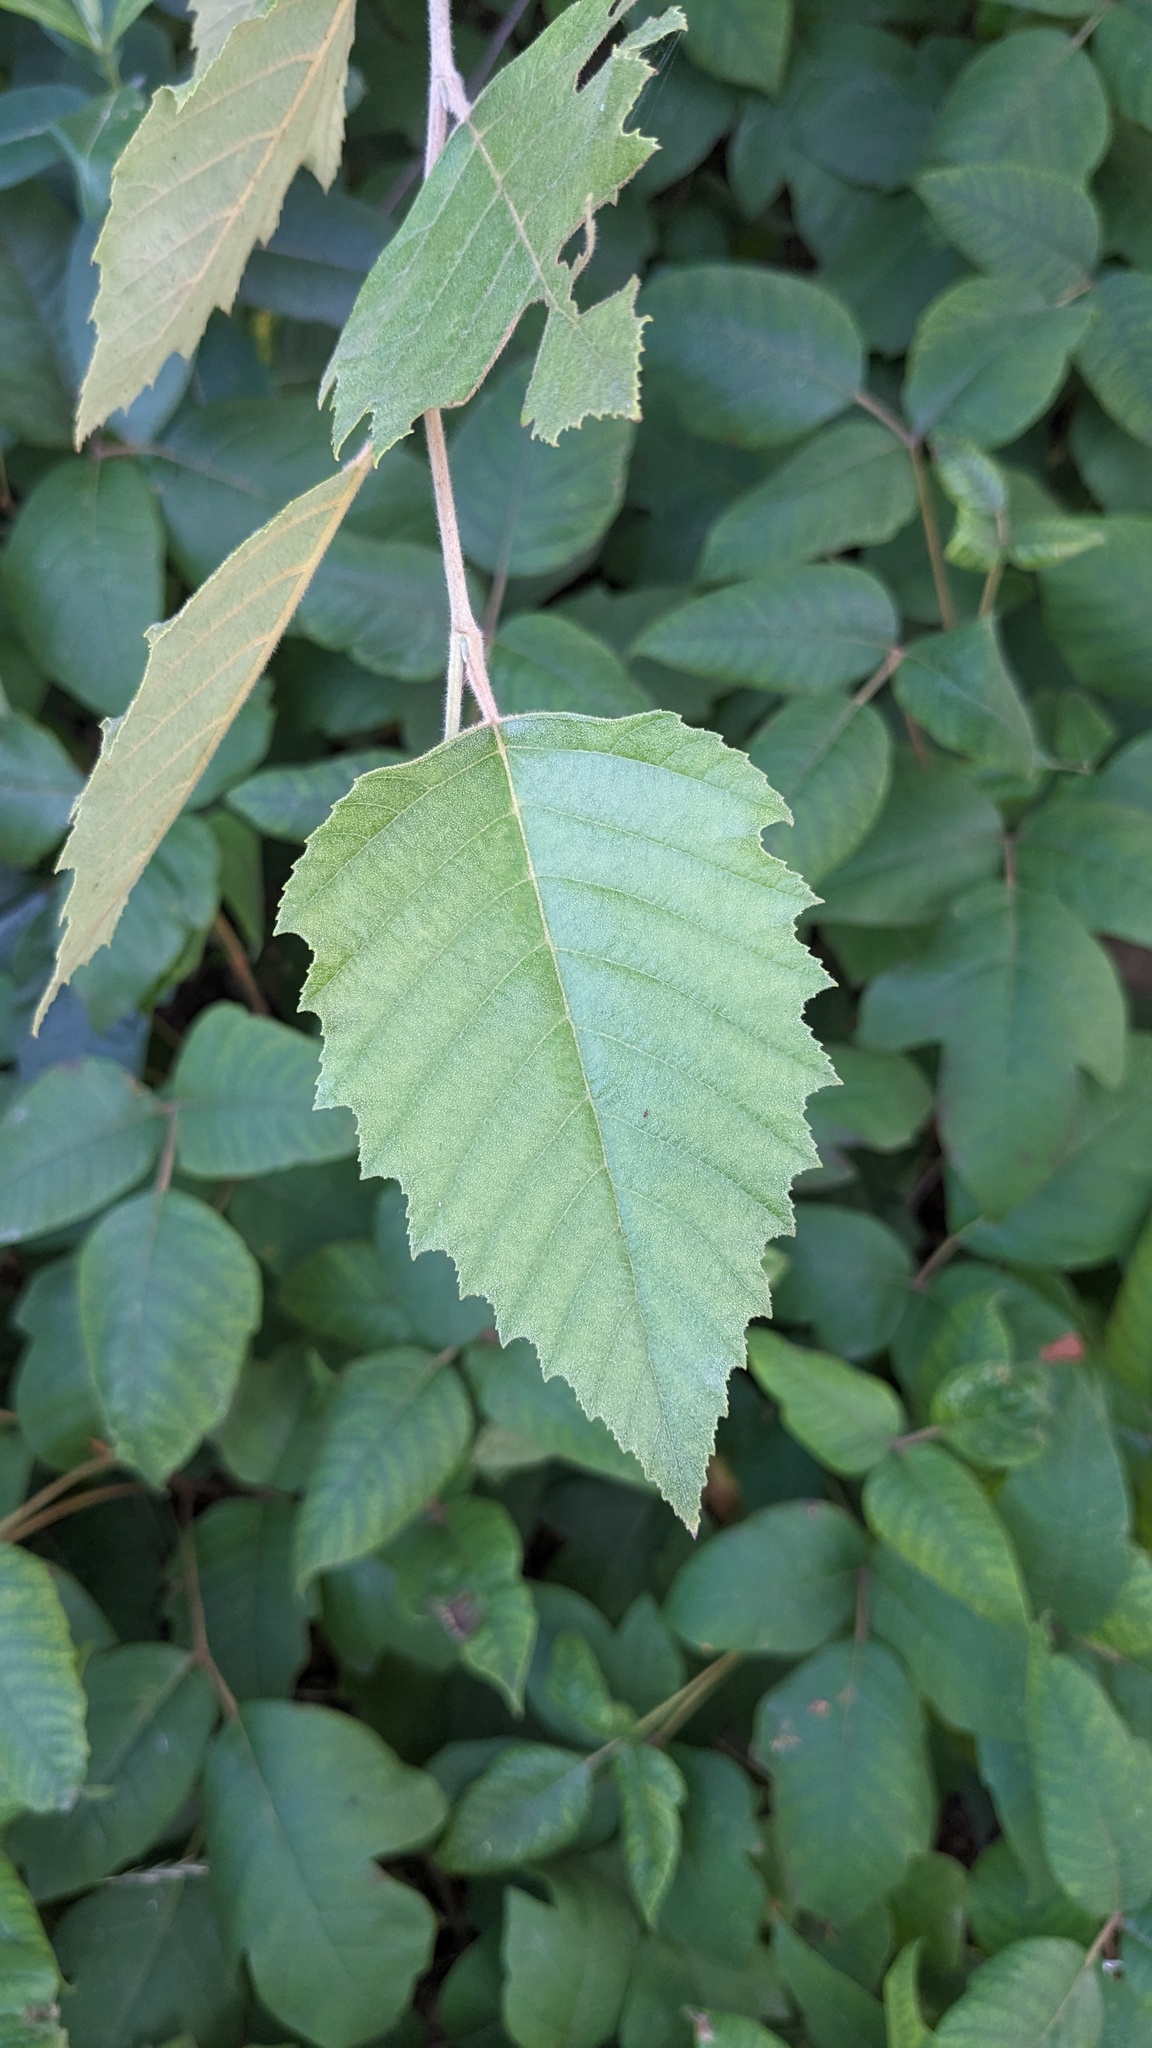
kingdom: Plantae
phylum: Tracheophyta
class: Magnoliopsida
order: Fagales
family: Betulaceae
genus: Betula
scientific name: Betula nigra
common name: Black birch
